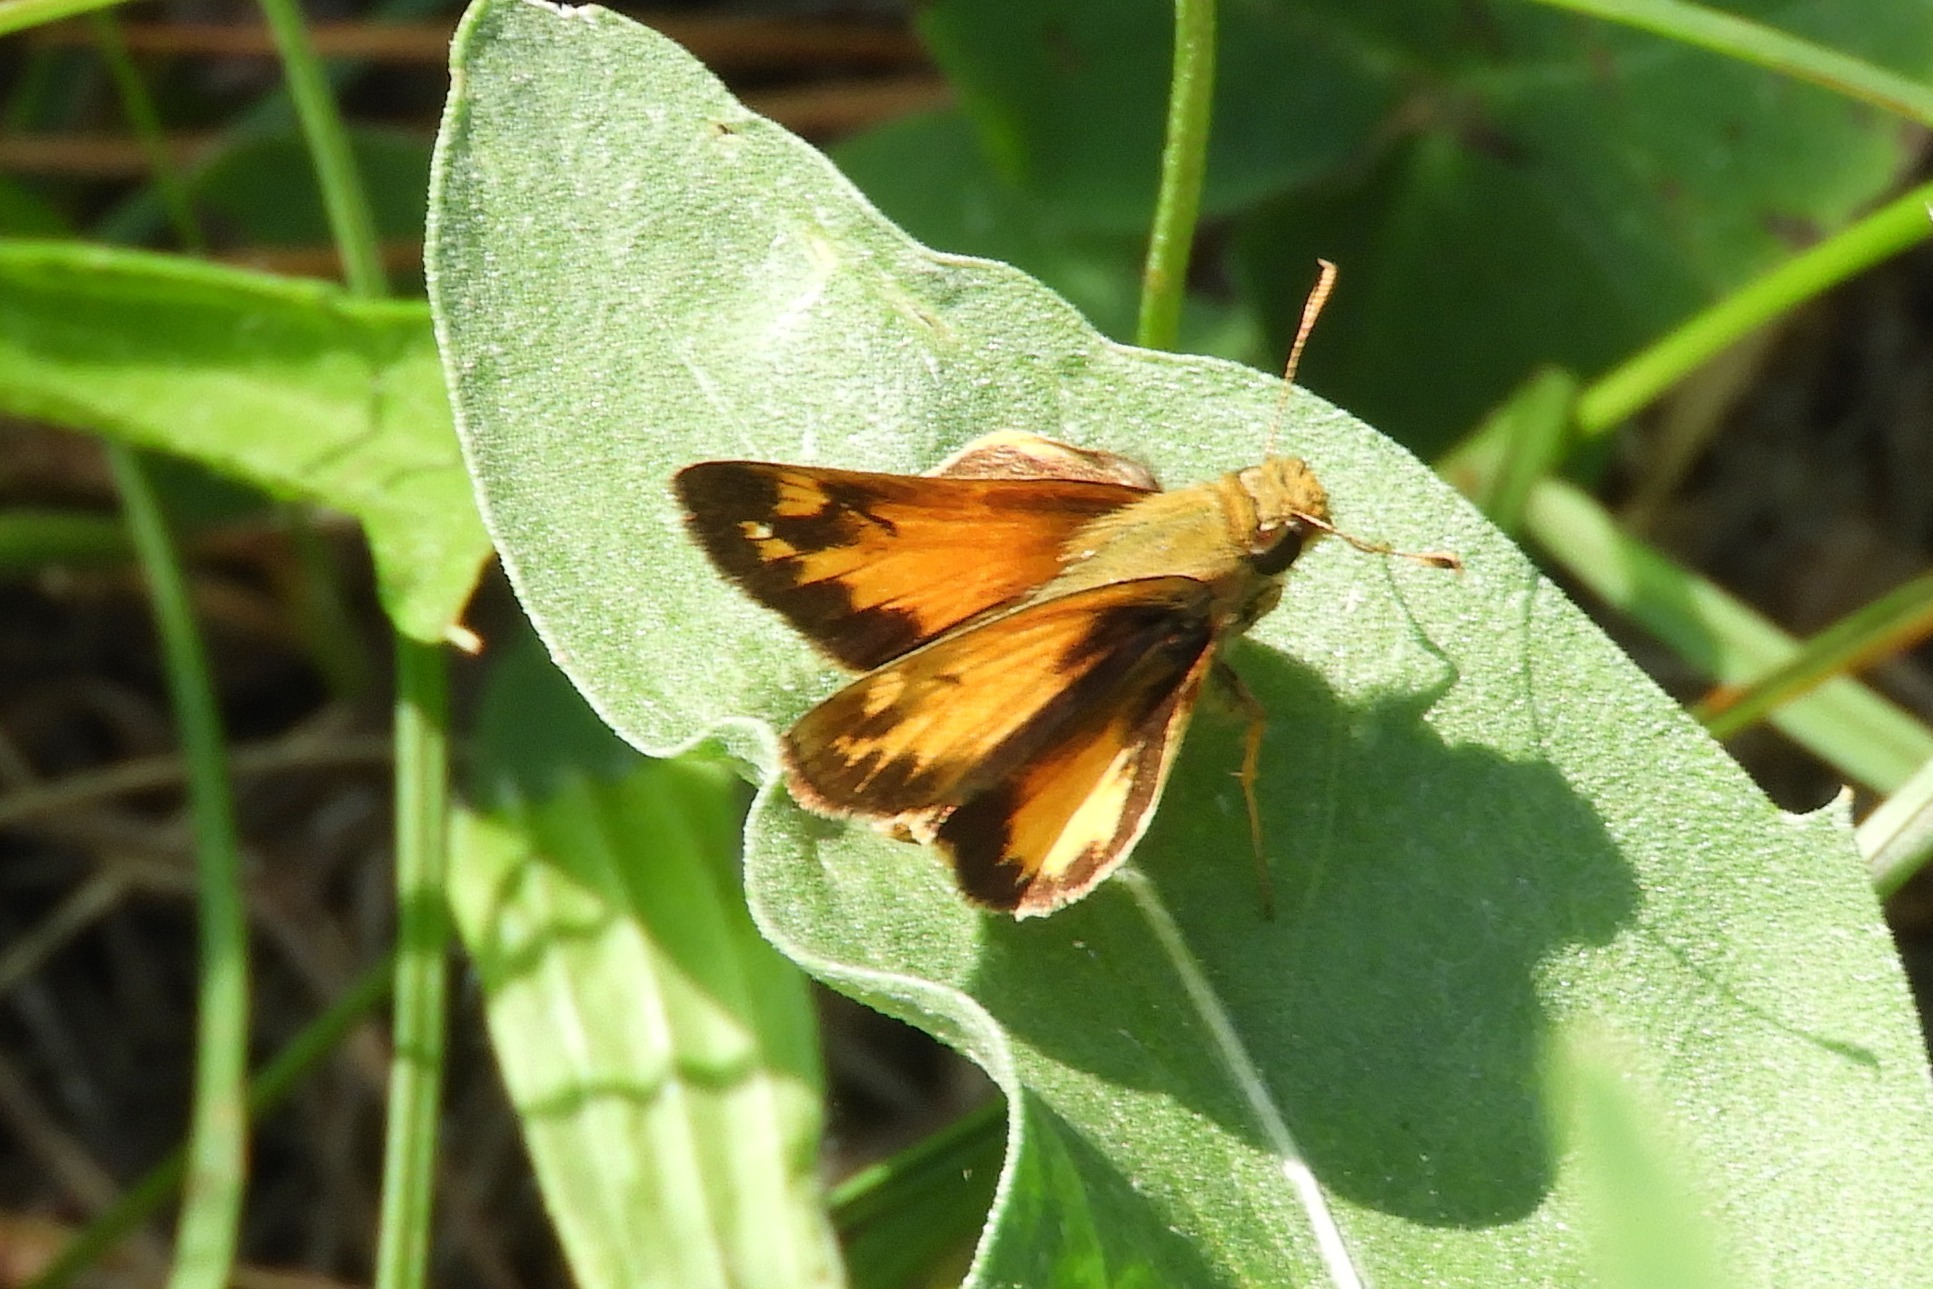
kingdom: Animalia
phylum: Arthropoda
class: Insecta
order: Lepidoptera
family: Hesperiidae
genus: Lon
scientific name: Lon zabulon
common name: Zabulon skipper
